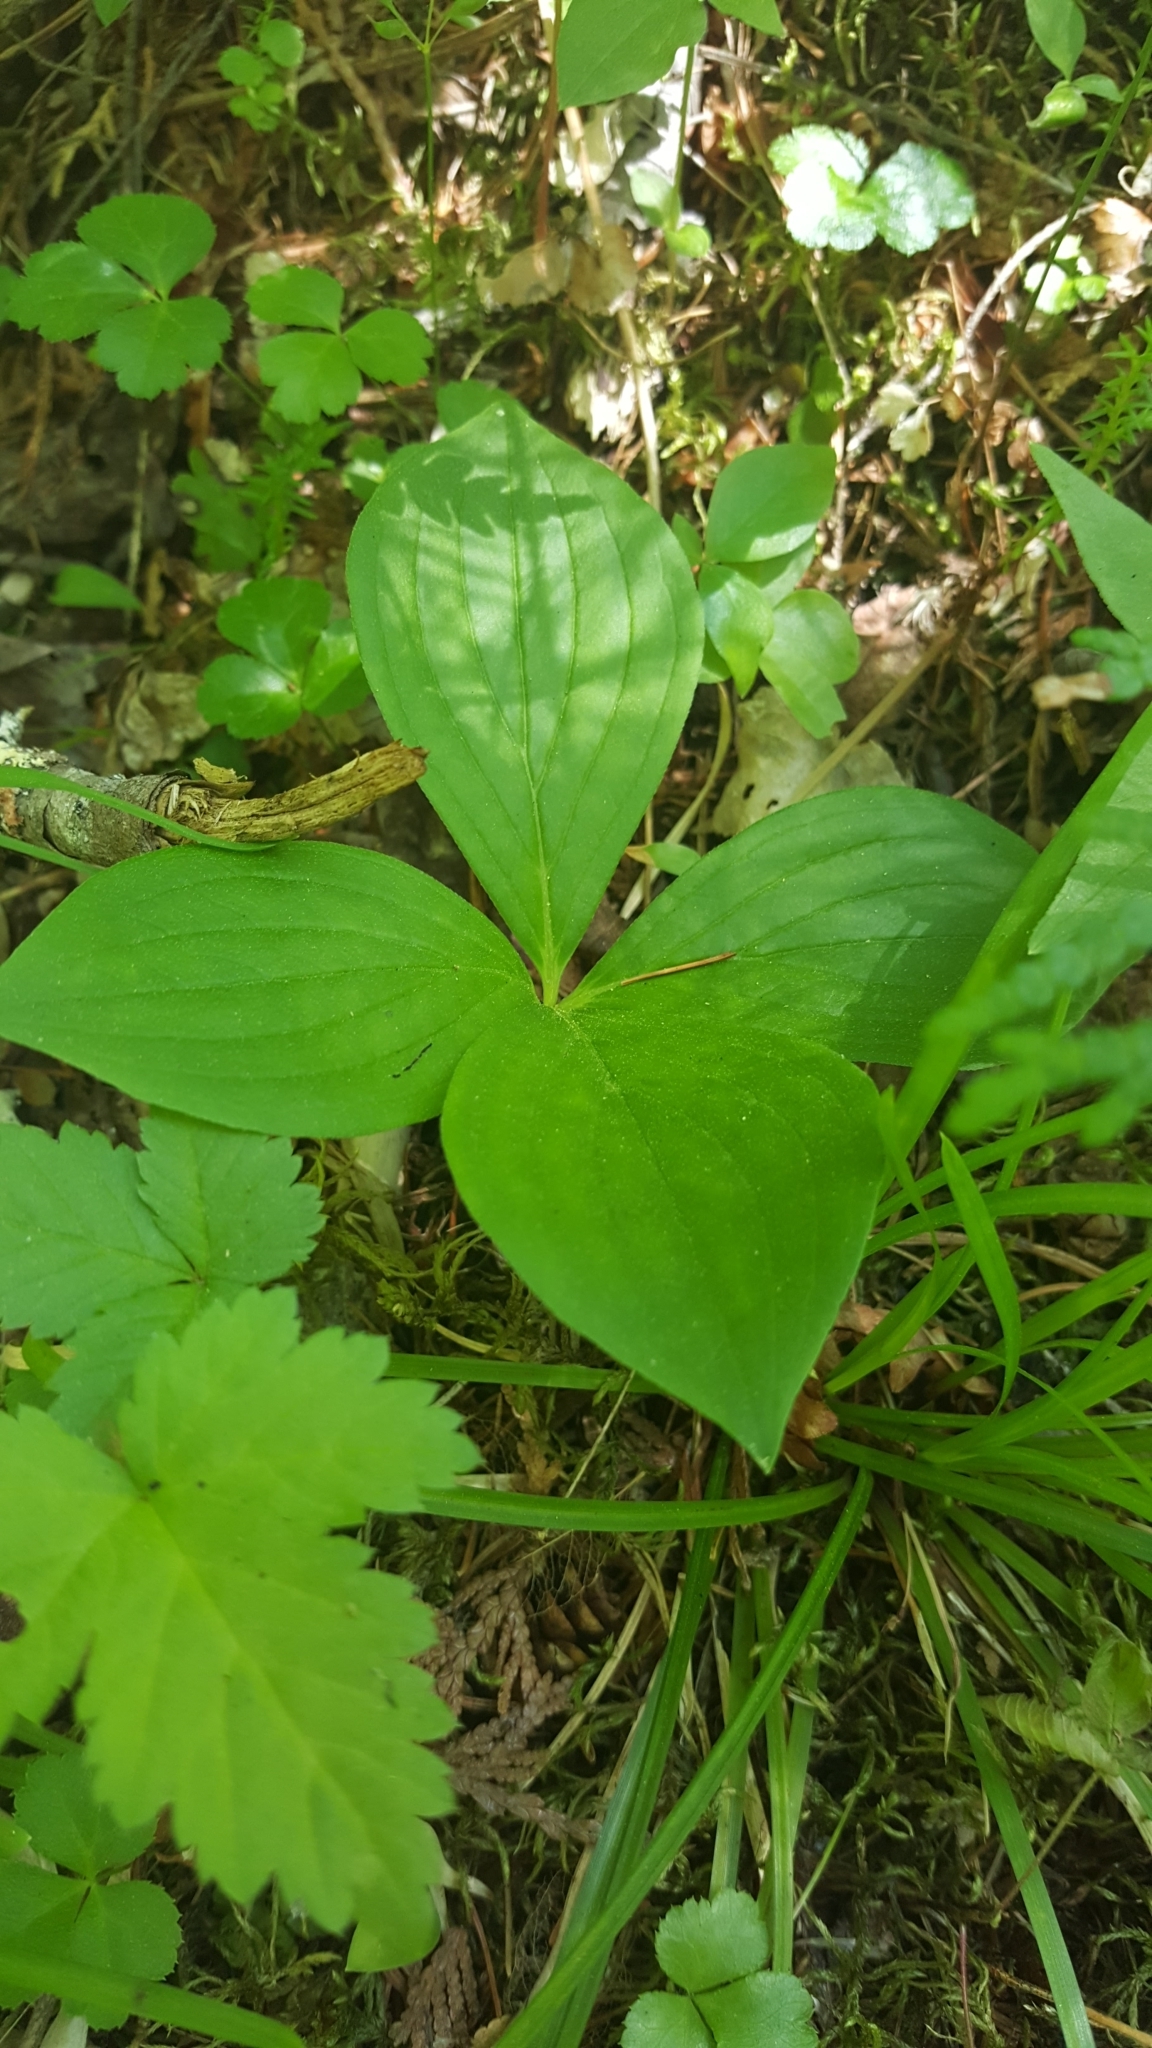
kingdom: Plantae
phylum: Tracheophyta
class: Magnoliopsida
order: Cornales
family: Cornaceae
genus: Cornus
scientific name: Cornus canadensis
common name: Creeping dogwood
